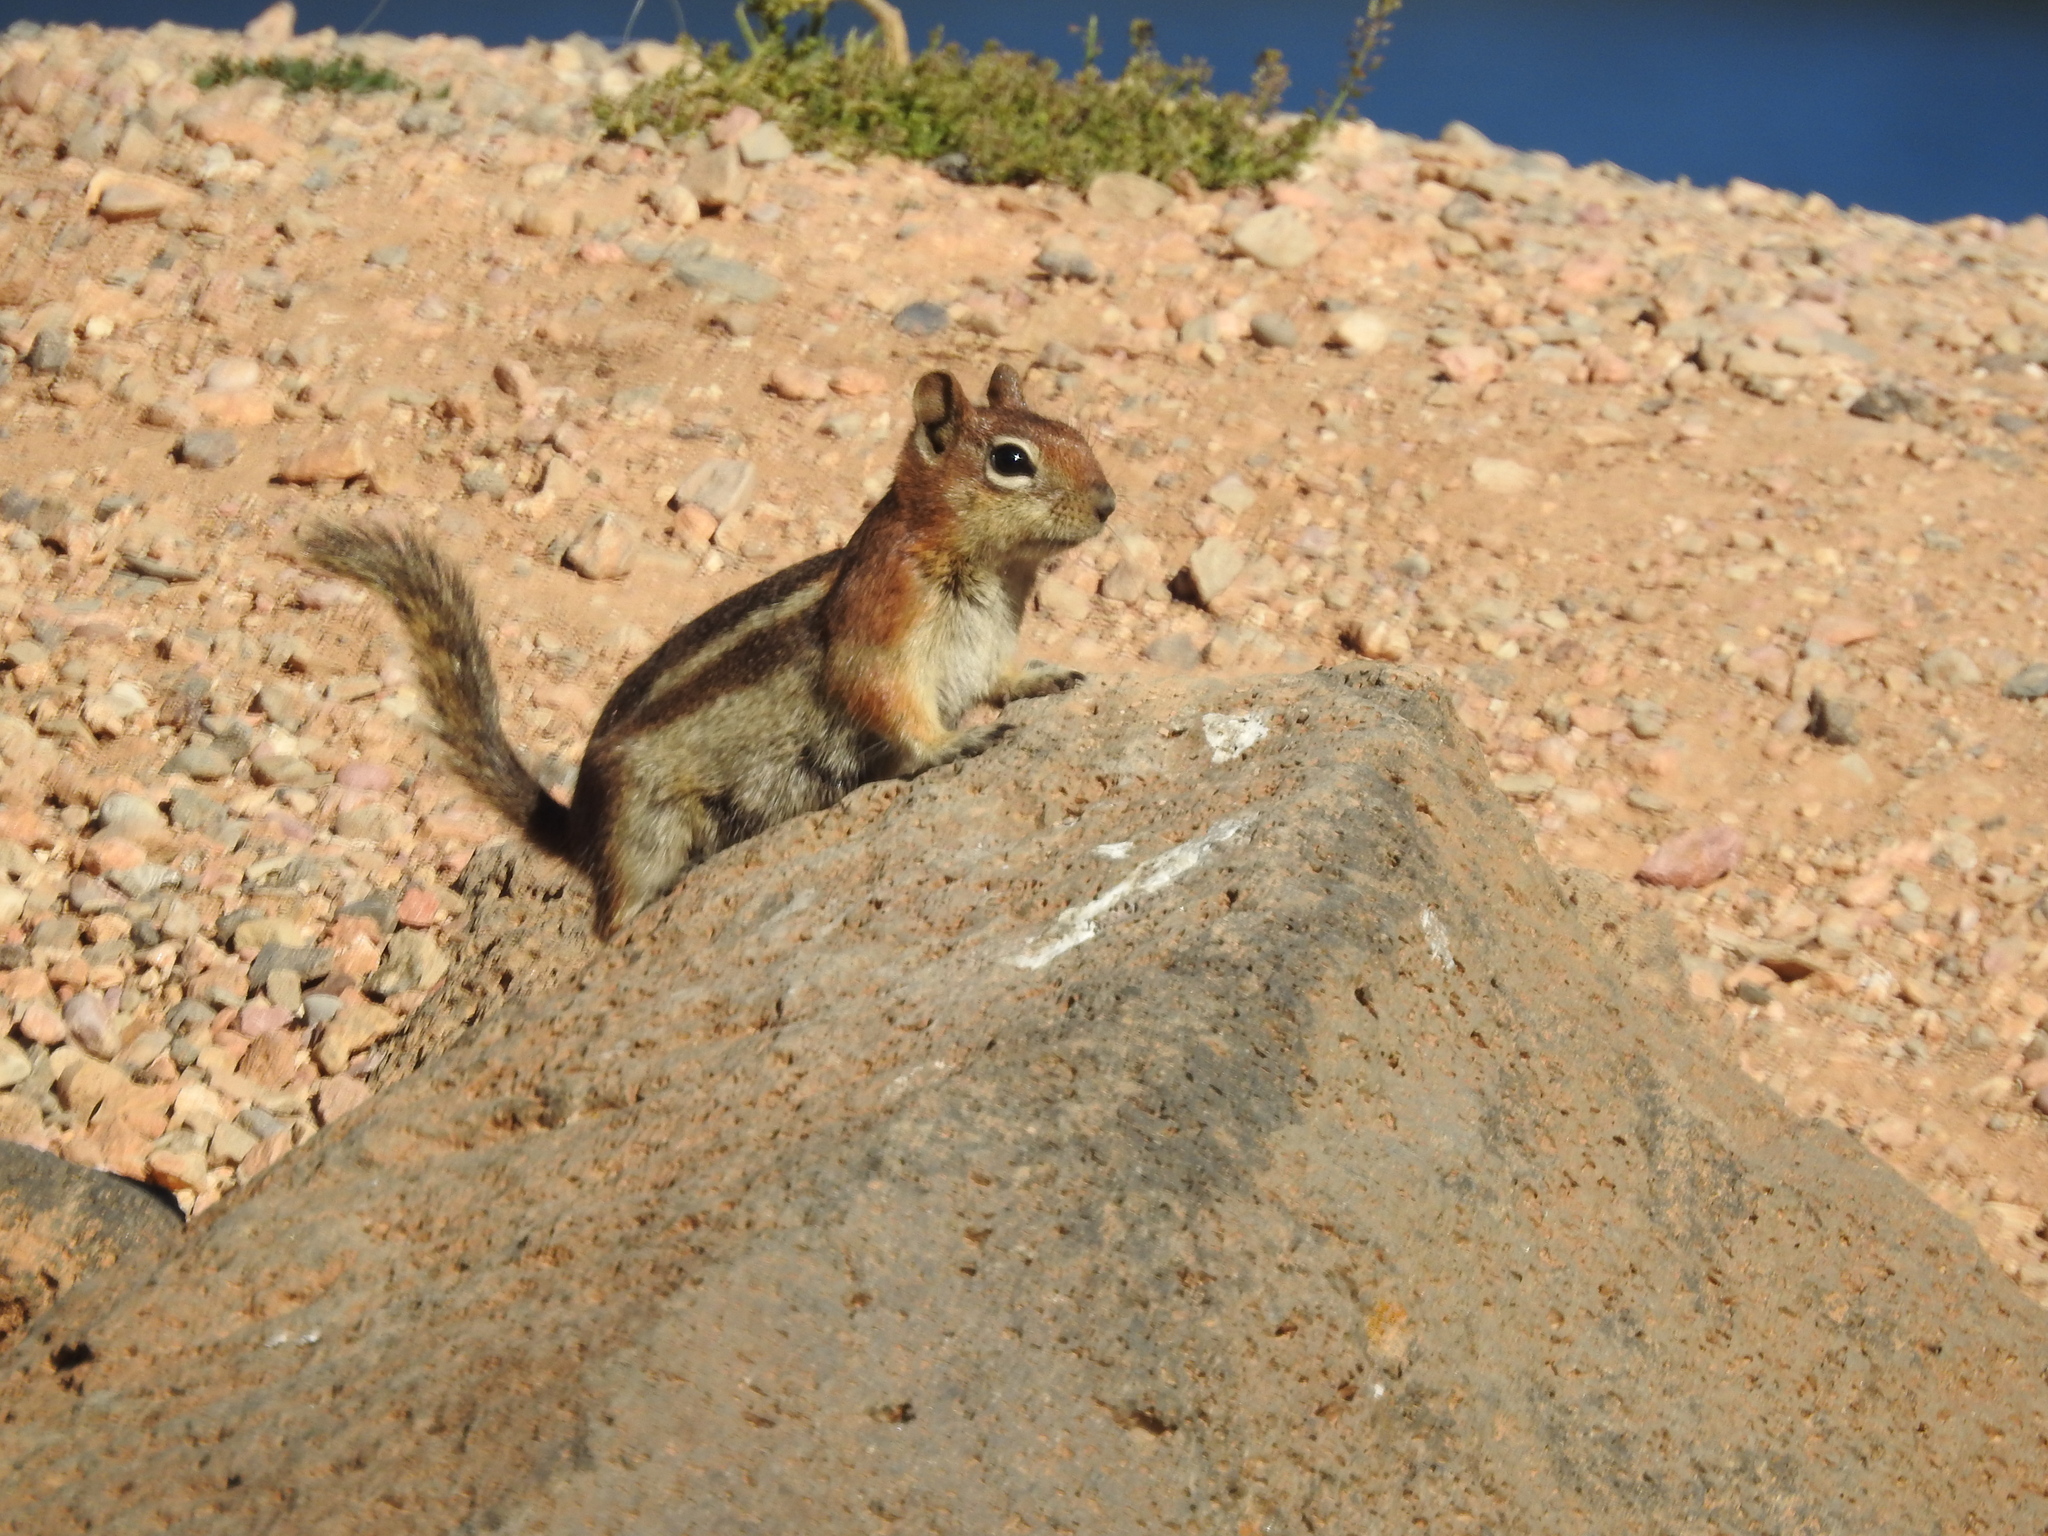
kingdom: Animalia
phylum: Chordata
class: Mammalia
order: Rodentia
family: Sciuridae
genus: Callospermophilus
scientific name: Callospermophilus lateralis
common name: Golden-mantled ground squirrel
